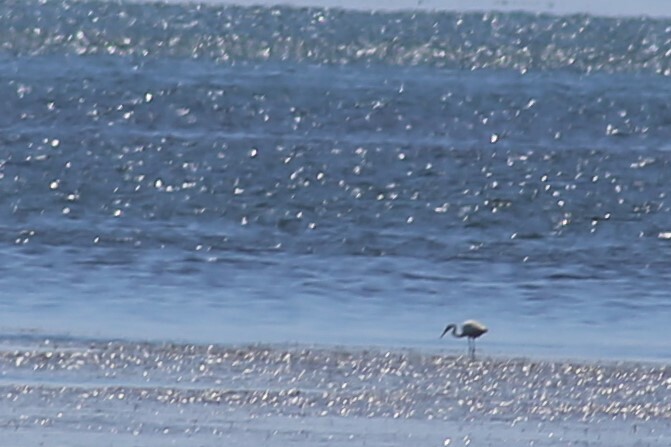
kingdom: Animalia
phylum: Chordata
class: Aves
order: Pelecaniformes
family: Ardeidae
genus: Ardea
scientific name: Ardea alba
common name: Great egret
